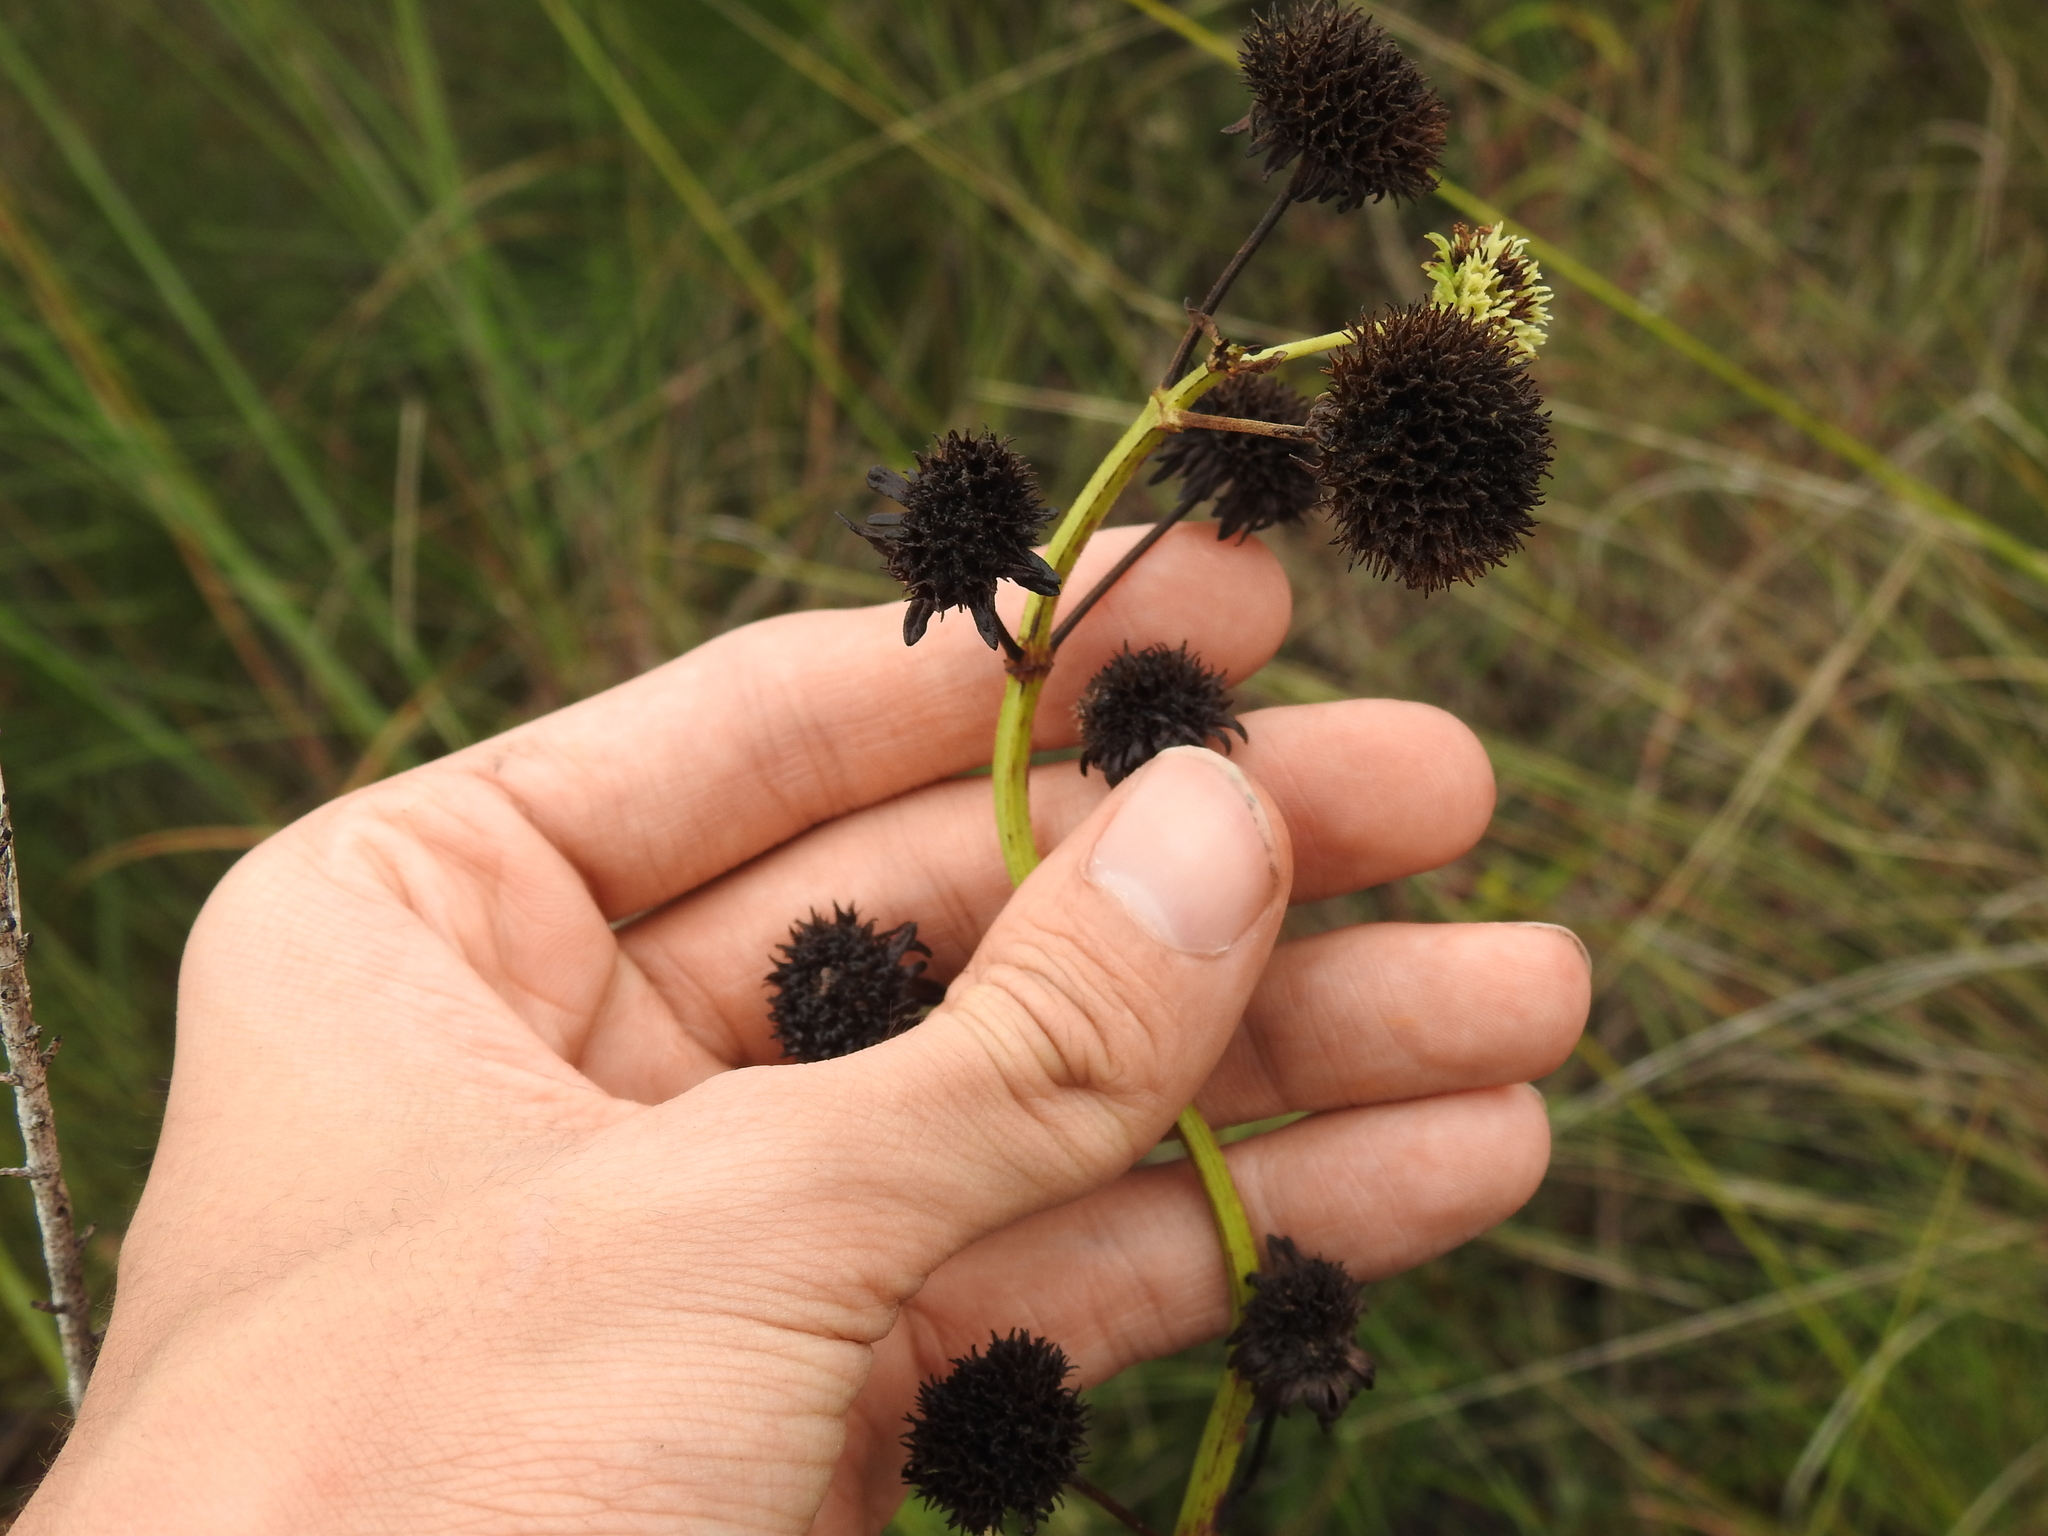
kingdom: Plantae
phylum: Tracheophyta
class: Magnoliopsida
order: Lamiales
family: Lamiaceae
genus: Hyptis
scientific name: Hyptis alata
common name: Cluster bush-mint
